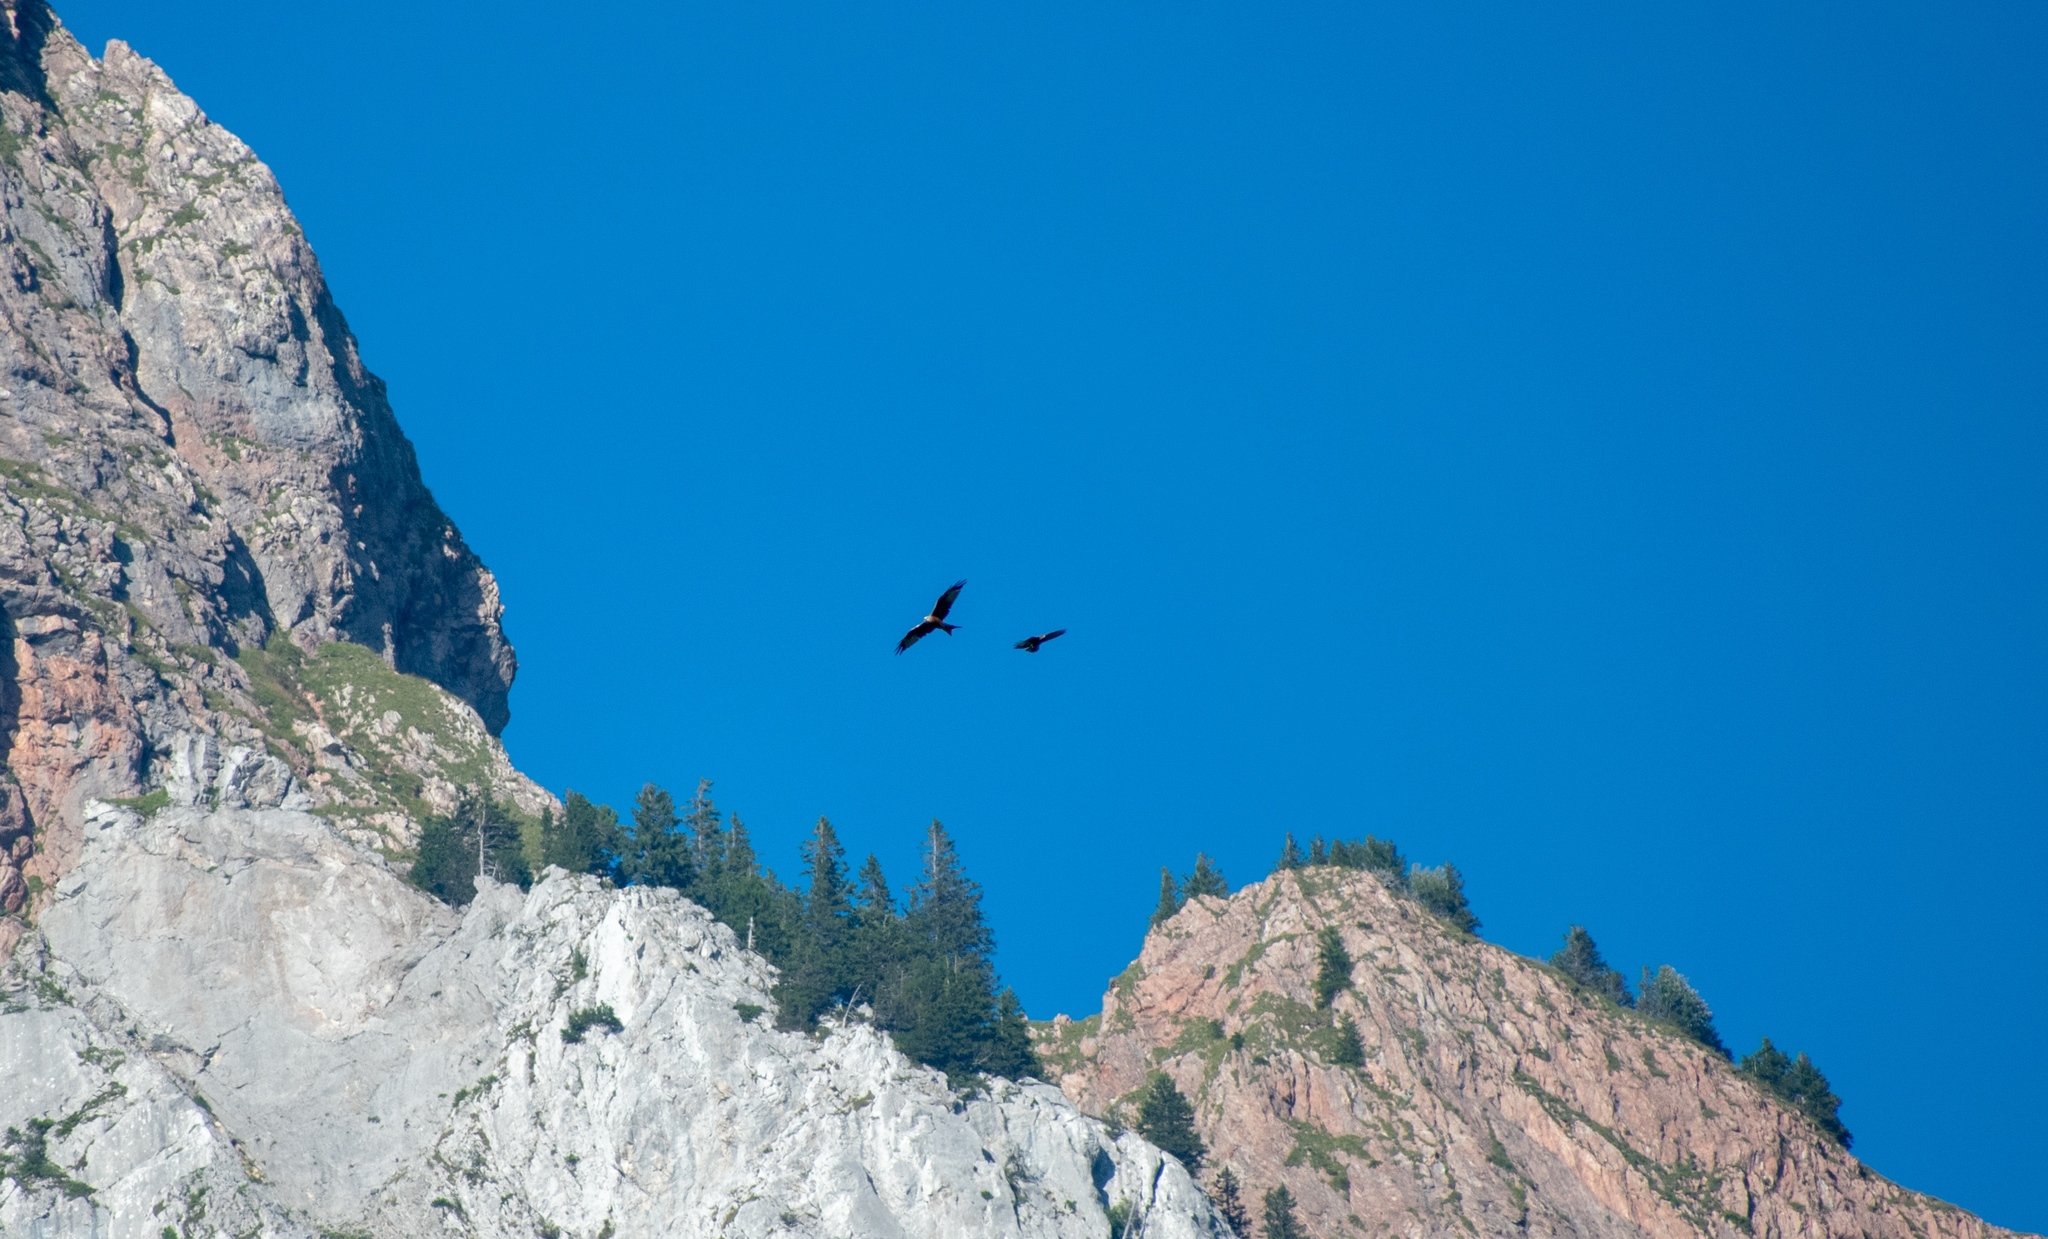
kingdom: Animalia
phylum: Chordata
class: Aves
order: Accipitriformes
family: Accipitridae
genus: Milvus
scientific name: Milvus milvus
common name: Red kite
